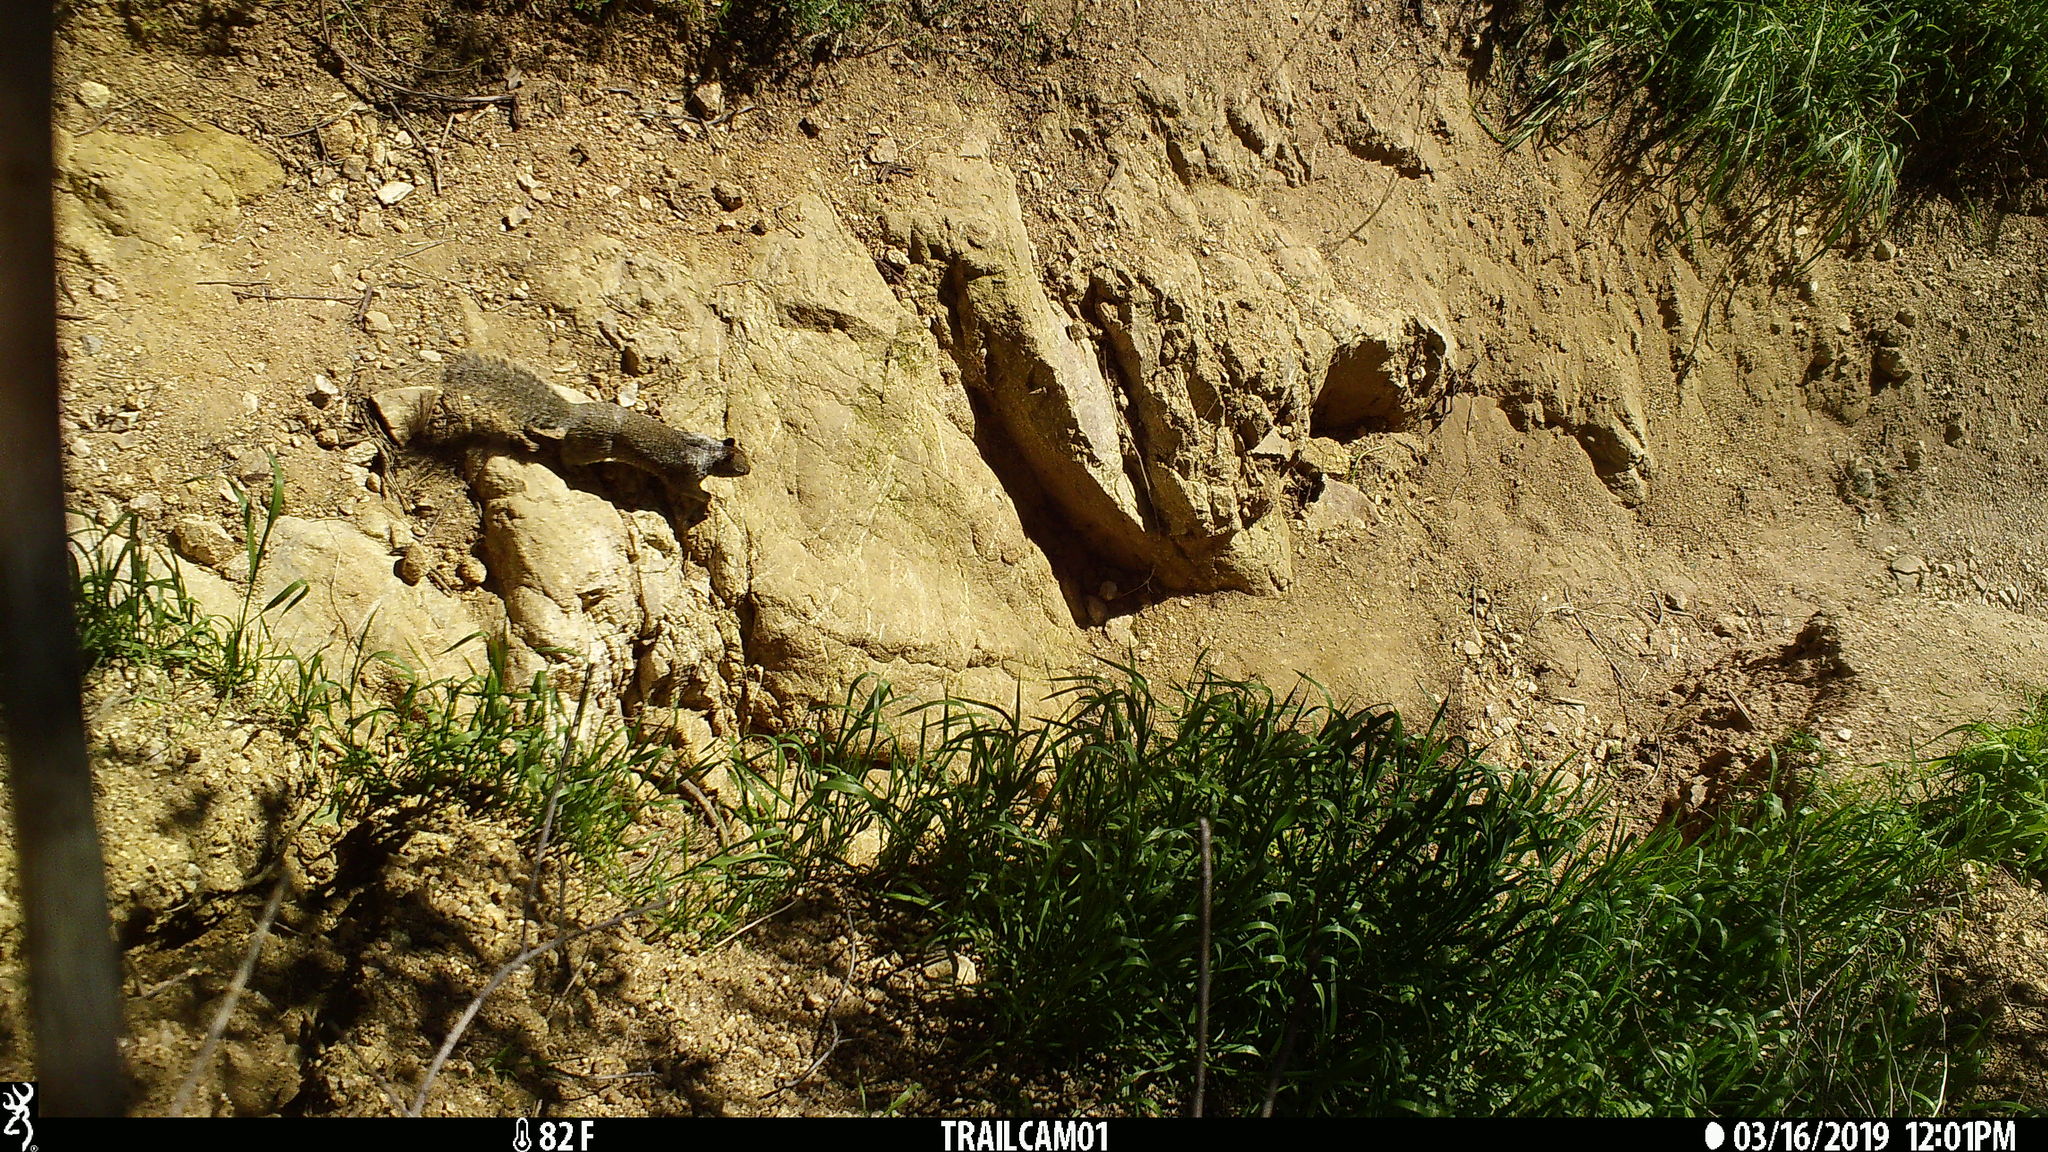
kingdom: Animalia
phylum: Chordata
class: Mammalia
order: Rodentia
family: Sciuridae
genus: Otospermophilus
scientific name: Otospermophilus beecheyi
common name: California ground squirrel
